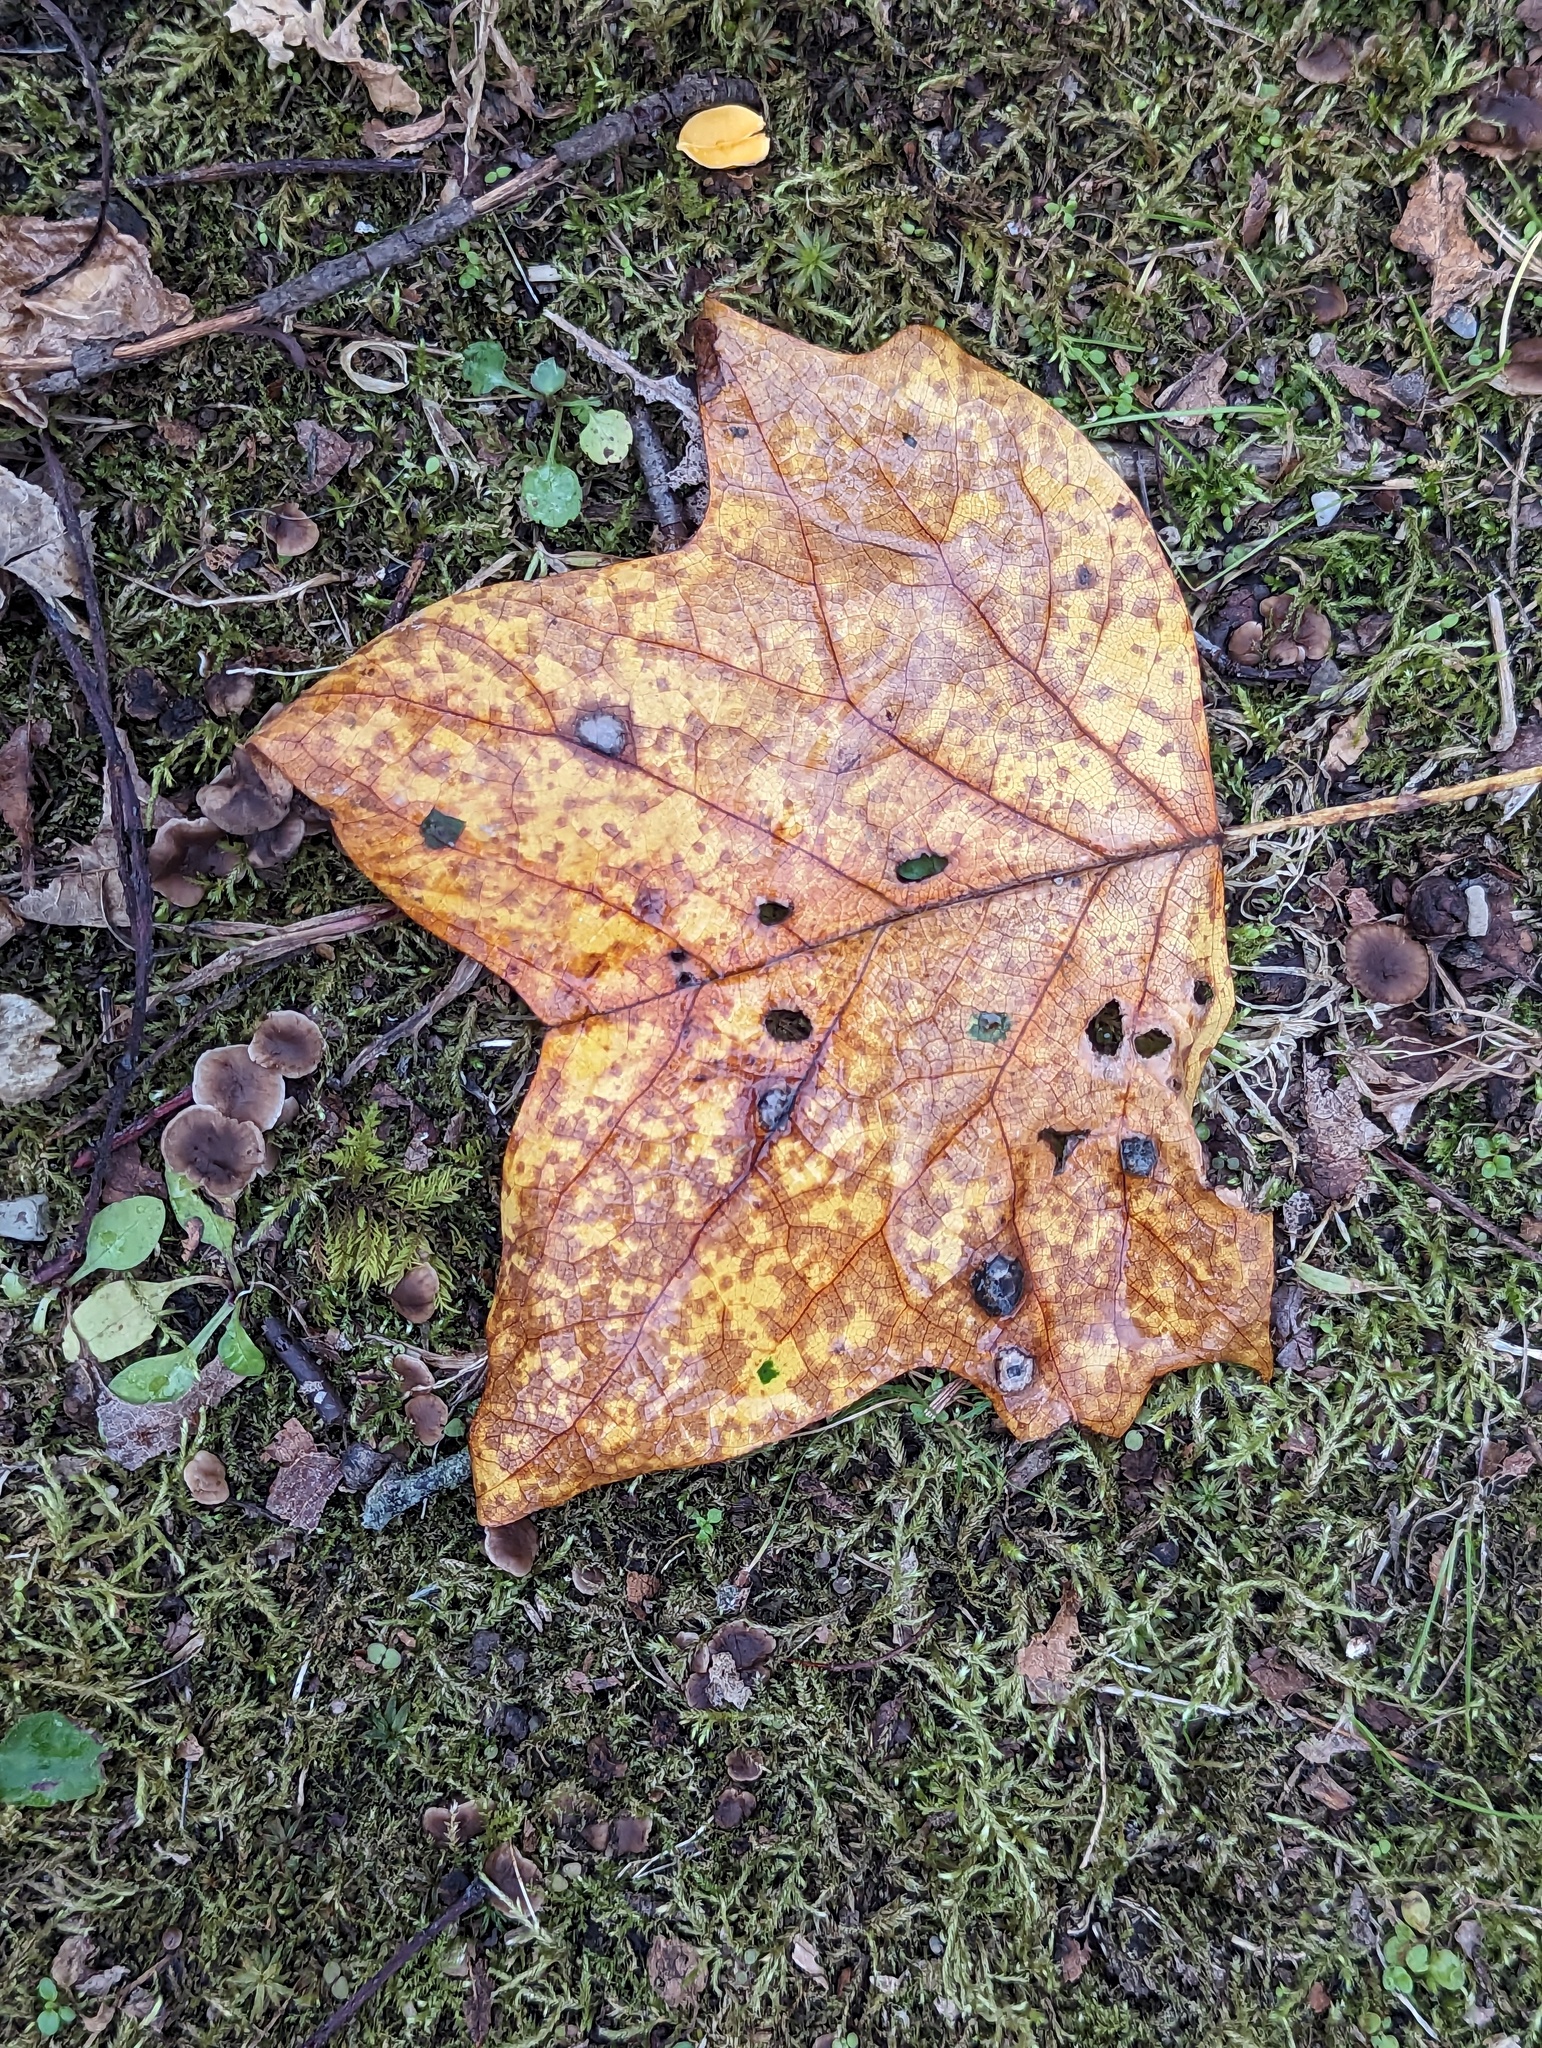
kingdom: Plantae
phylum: Tracheophyta
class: Magnoliopsida
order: Magnoliales
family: Magnoliaceae
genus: Liriodendron
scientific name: Liriodendron tulipifera
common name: Tulip tree
